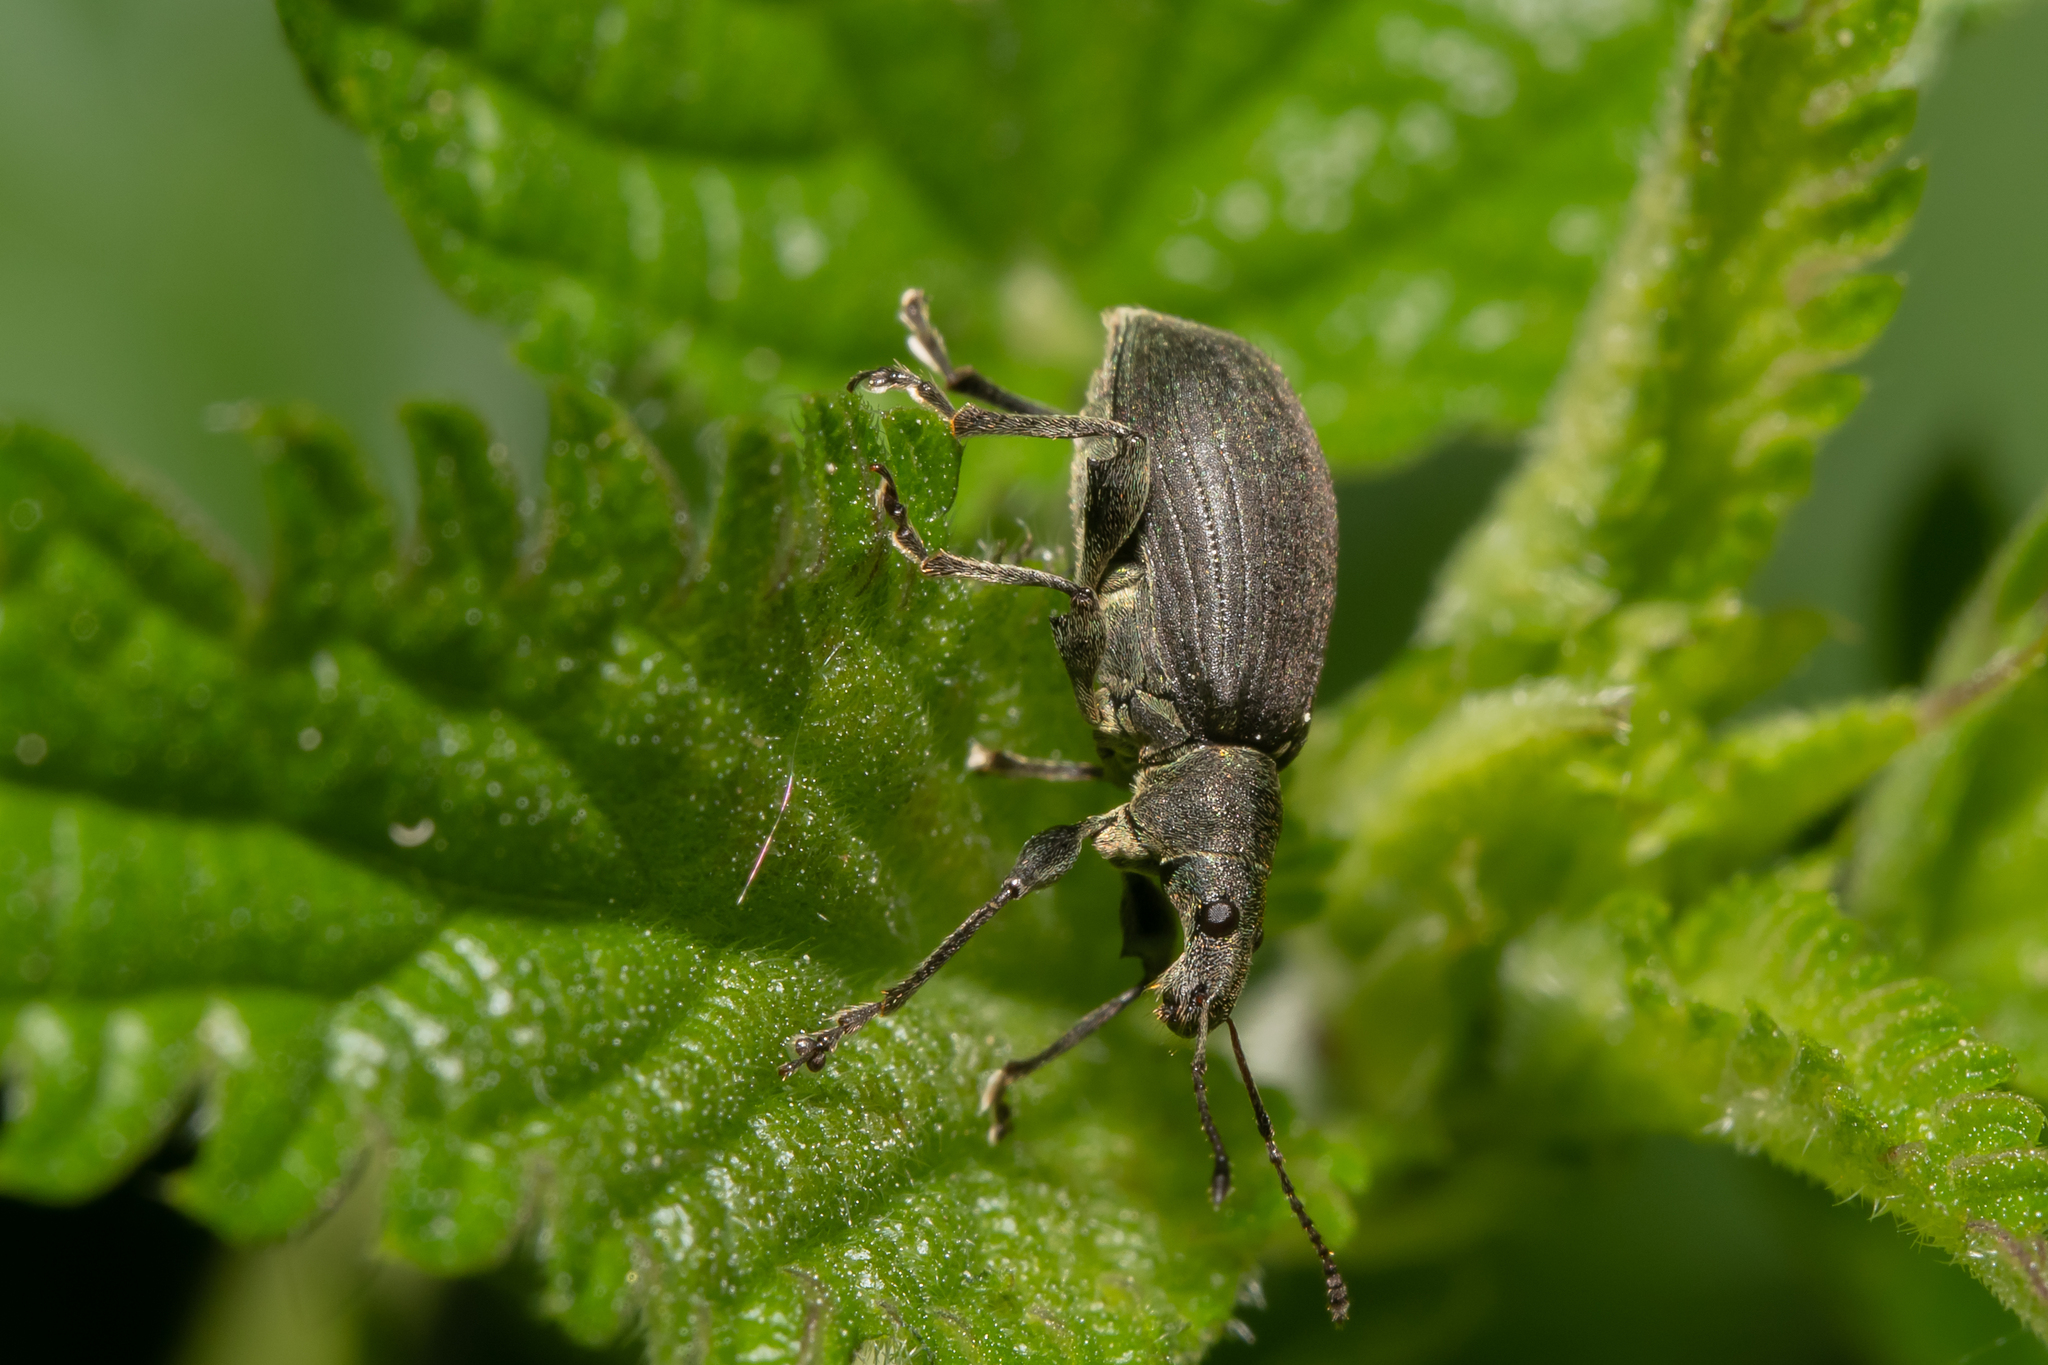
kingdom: Animalia
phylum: Arthropoda
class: Insecta
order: Coleoptera
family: Curculionidae
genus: Phyllobius
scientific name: Phyllobius pomaceus
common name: Green nettle weevil
